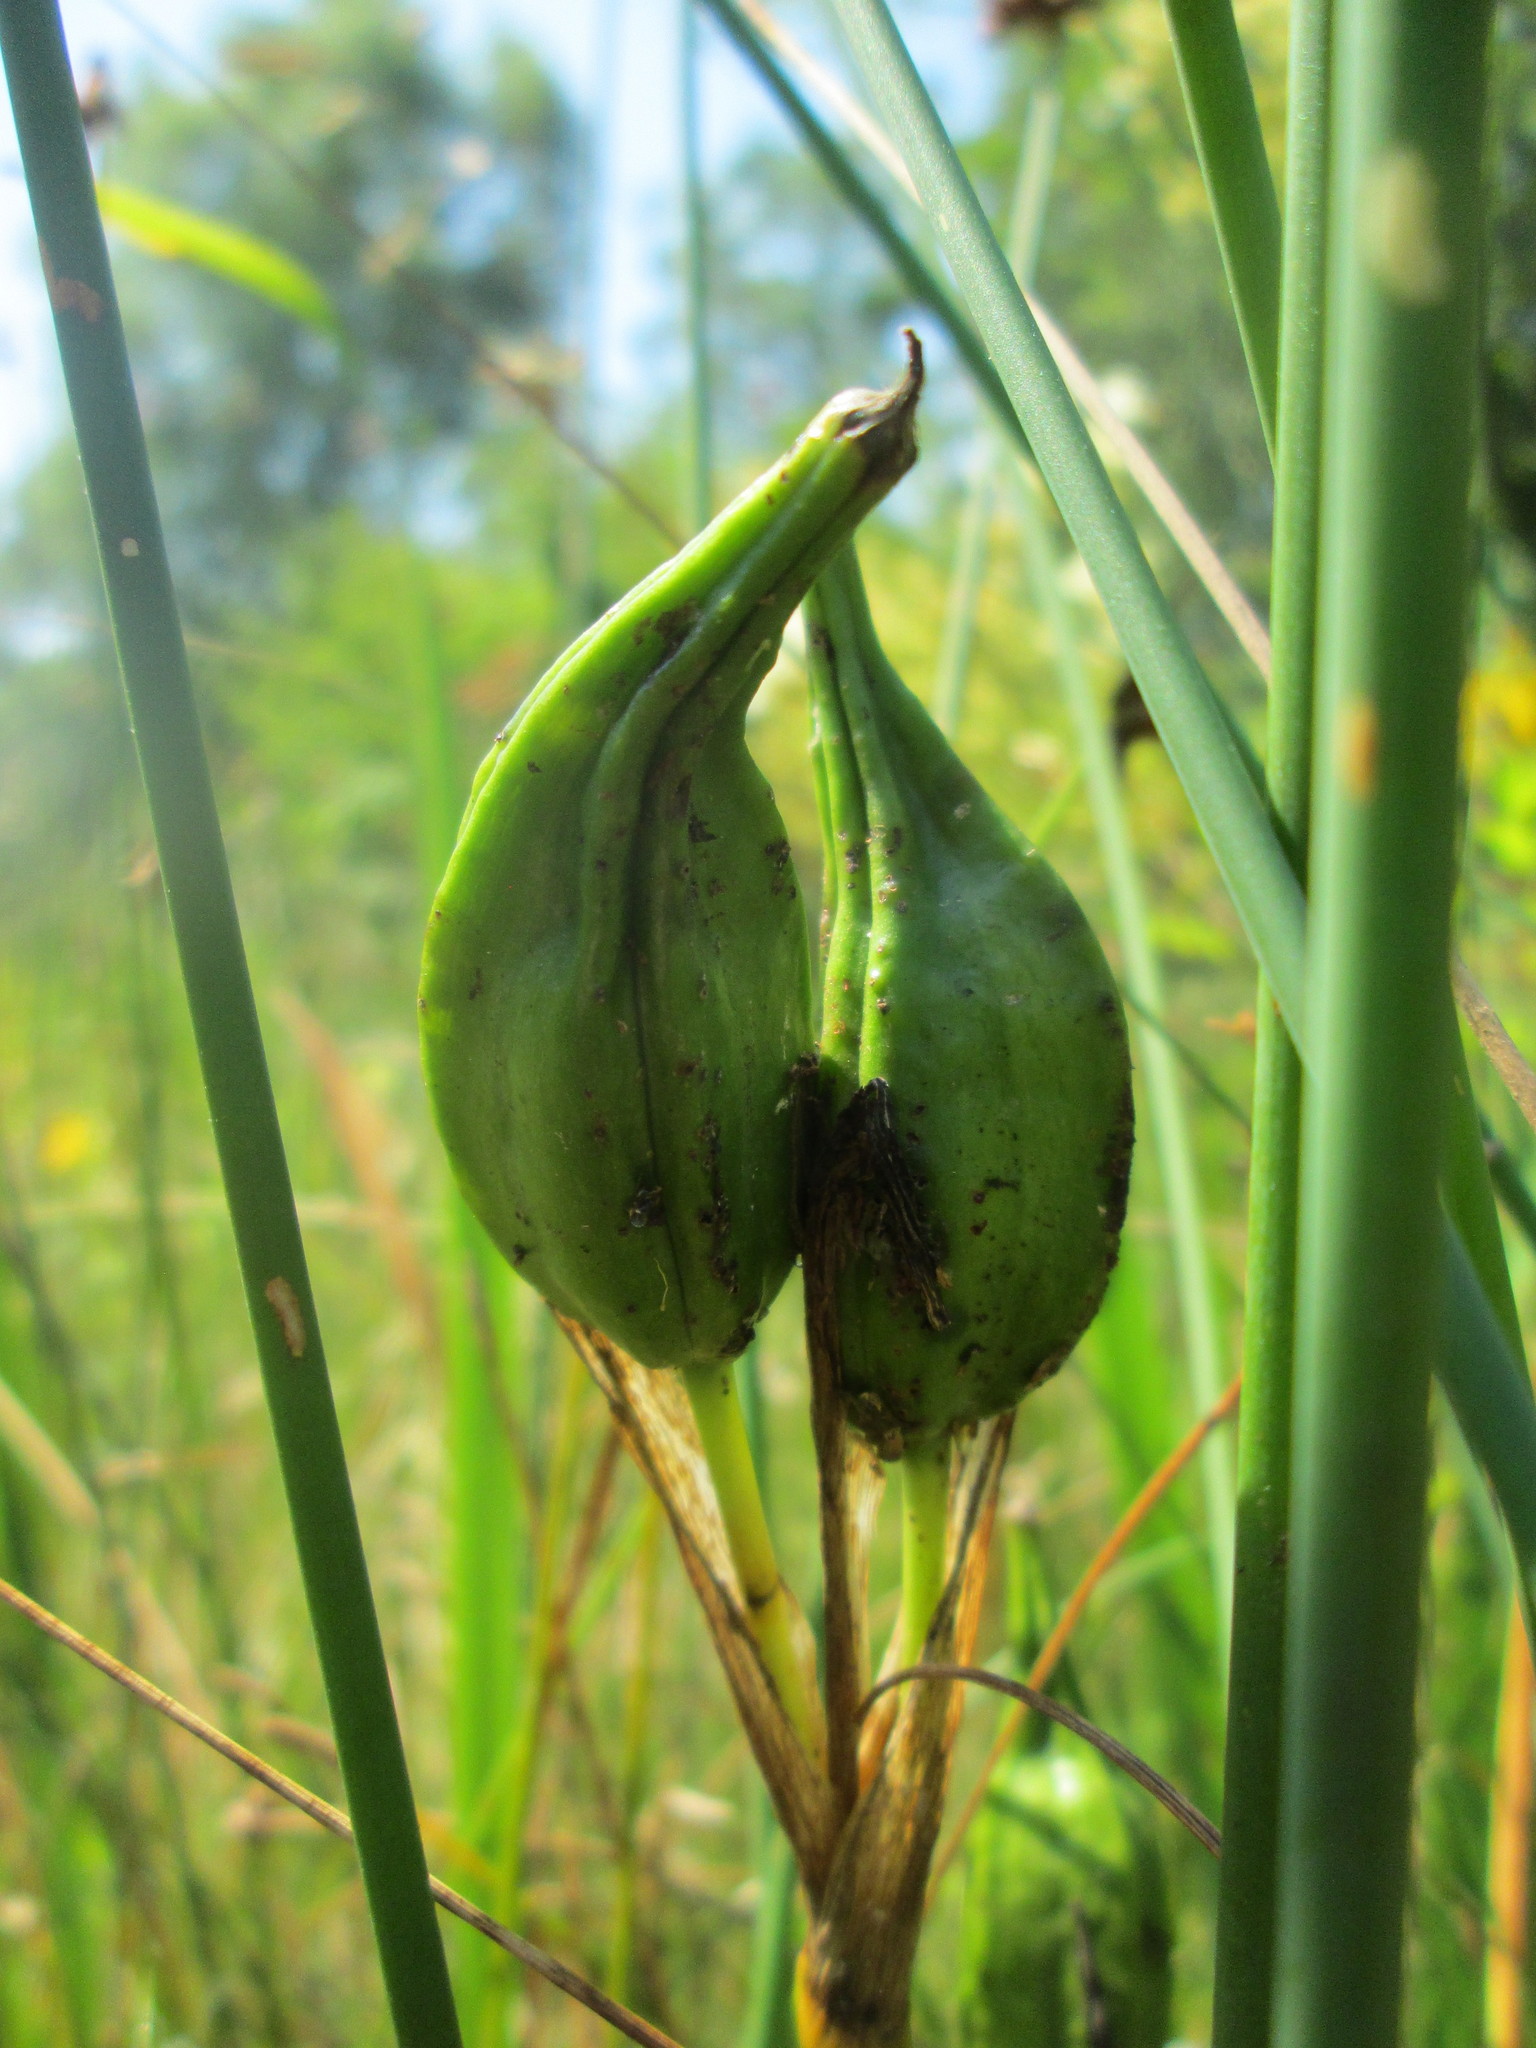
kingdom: Plantae
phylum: Tracheophyta
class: Liliopsida
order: Asparagales
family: Iridaceae
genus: Iris
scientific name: Iris pseudacorus
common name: Yellow flag
